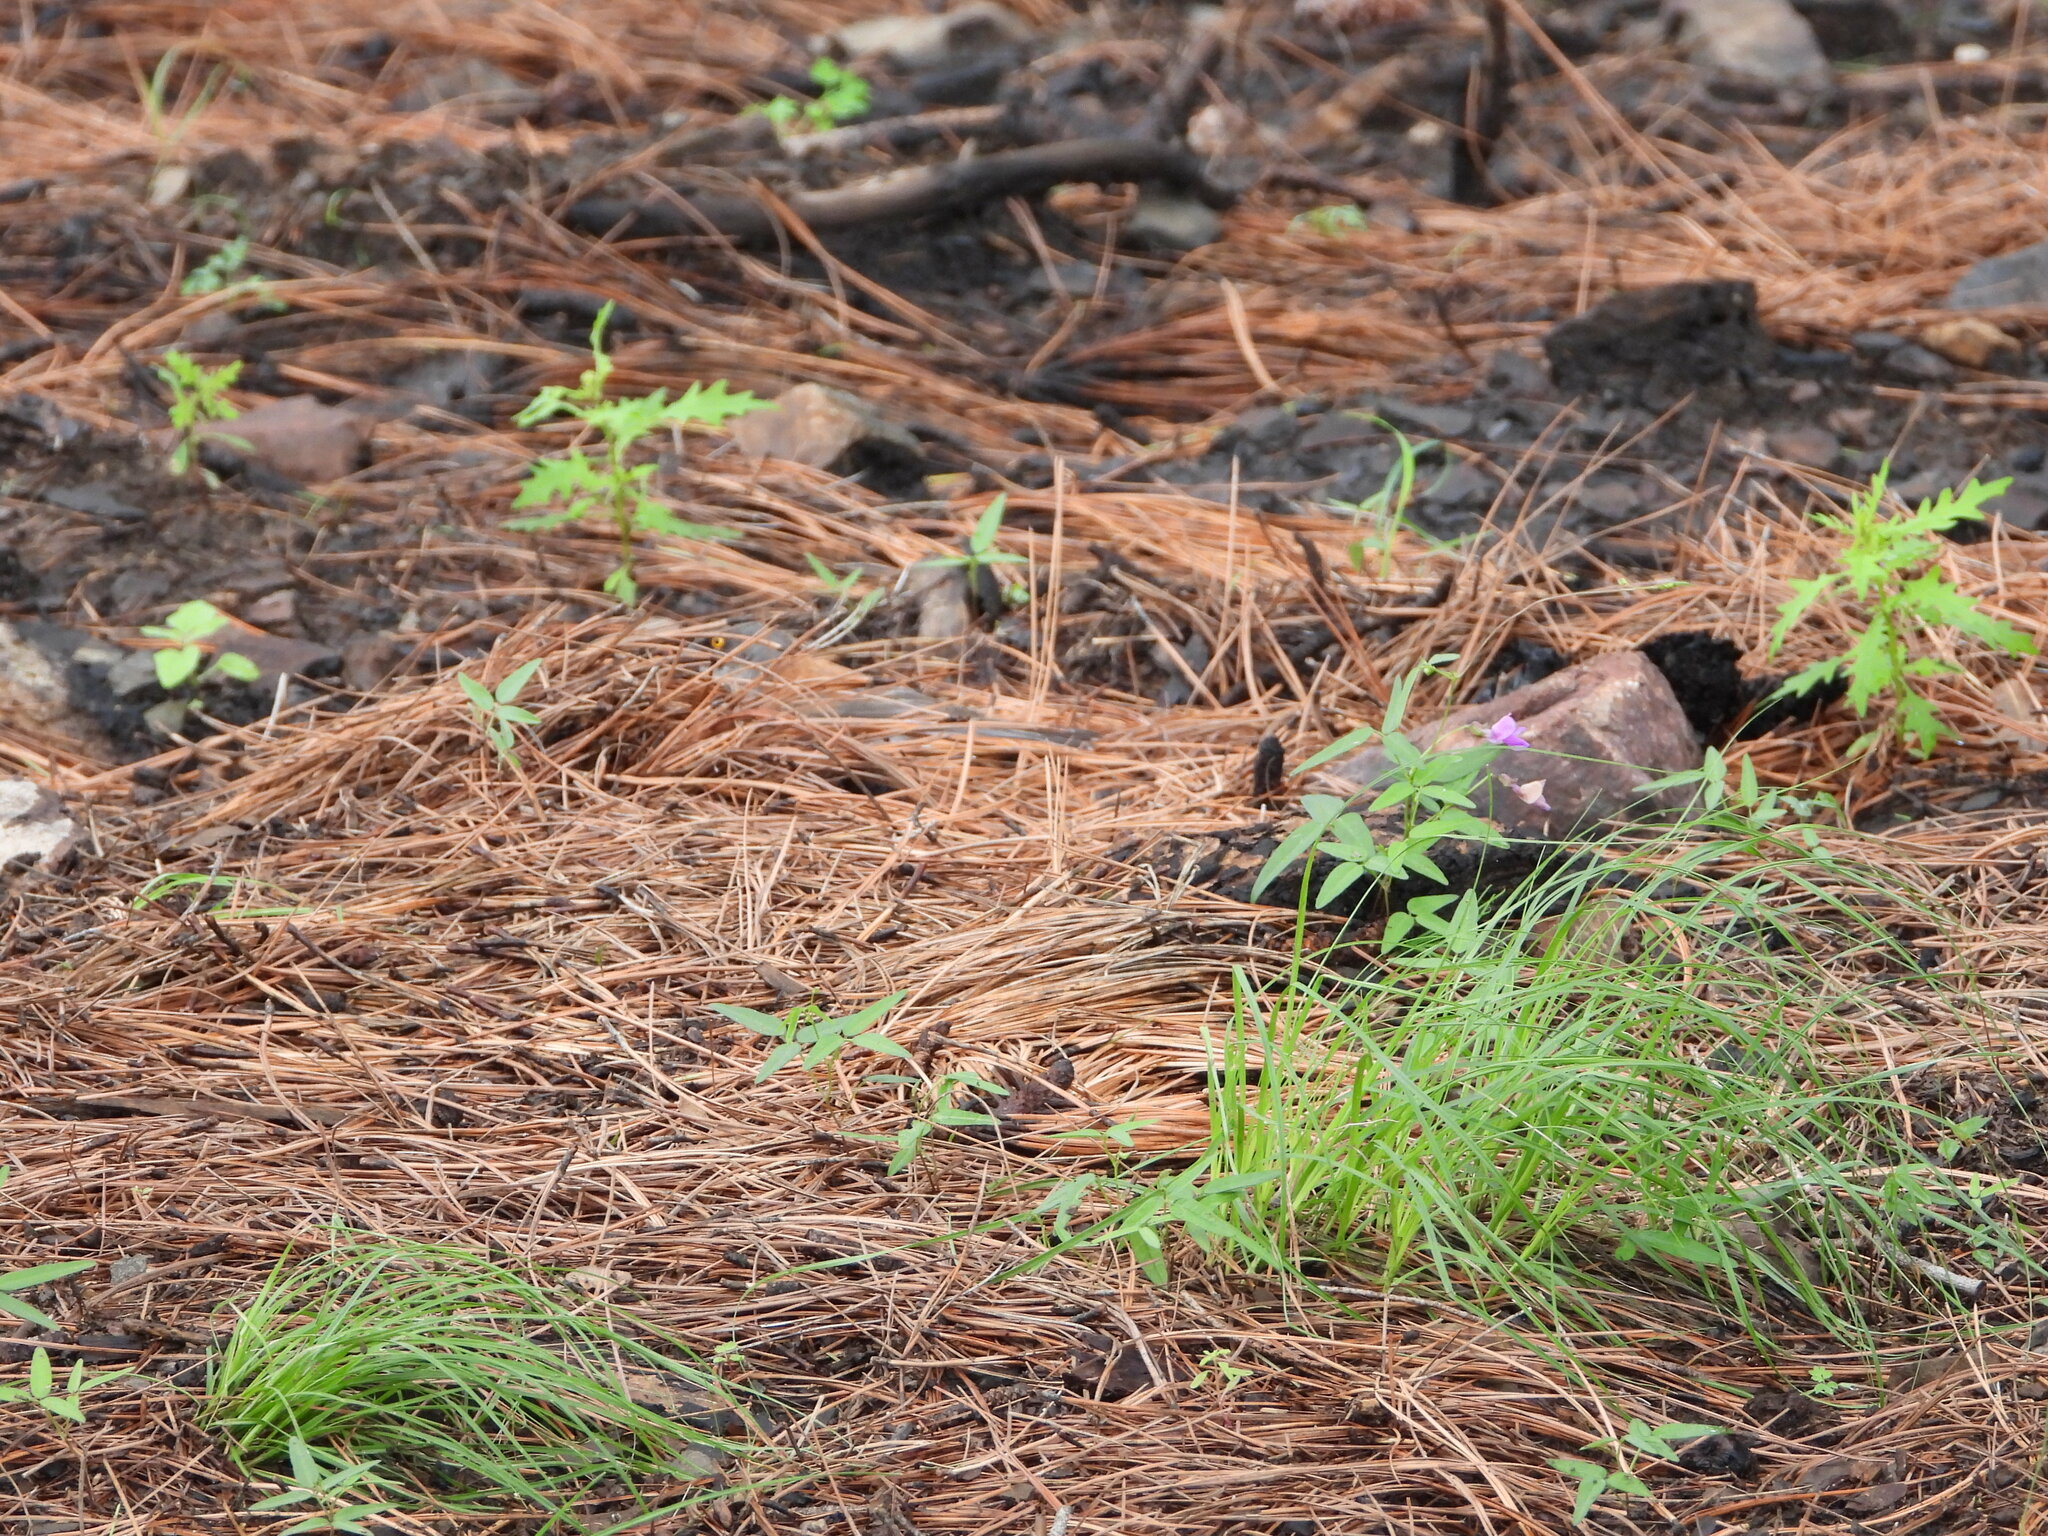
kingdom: Plantae
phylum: Tracheophyta
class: Magnoliopsida
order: Fabales
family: Fabaceae
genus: Phaseolus
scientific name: Phaseolus parvulus
